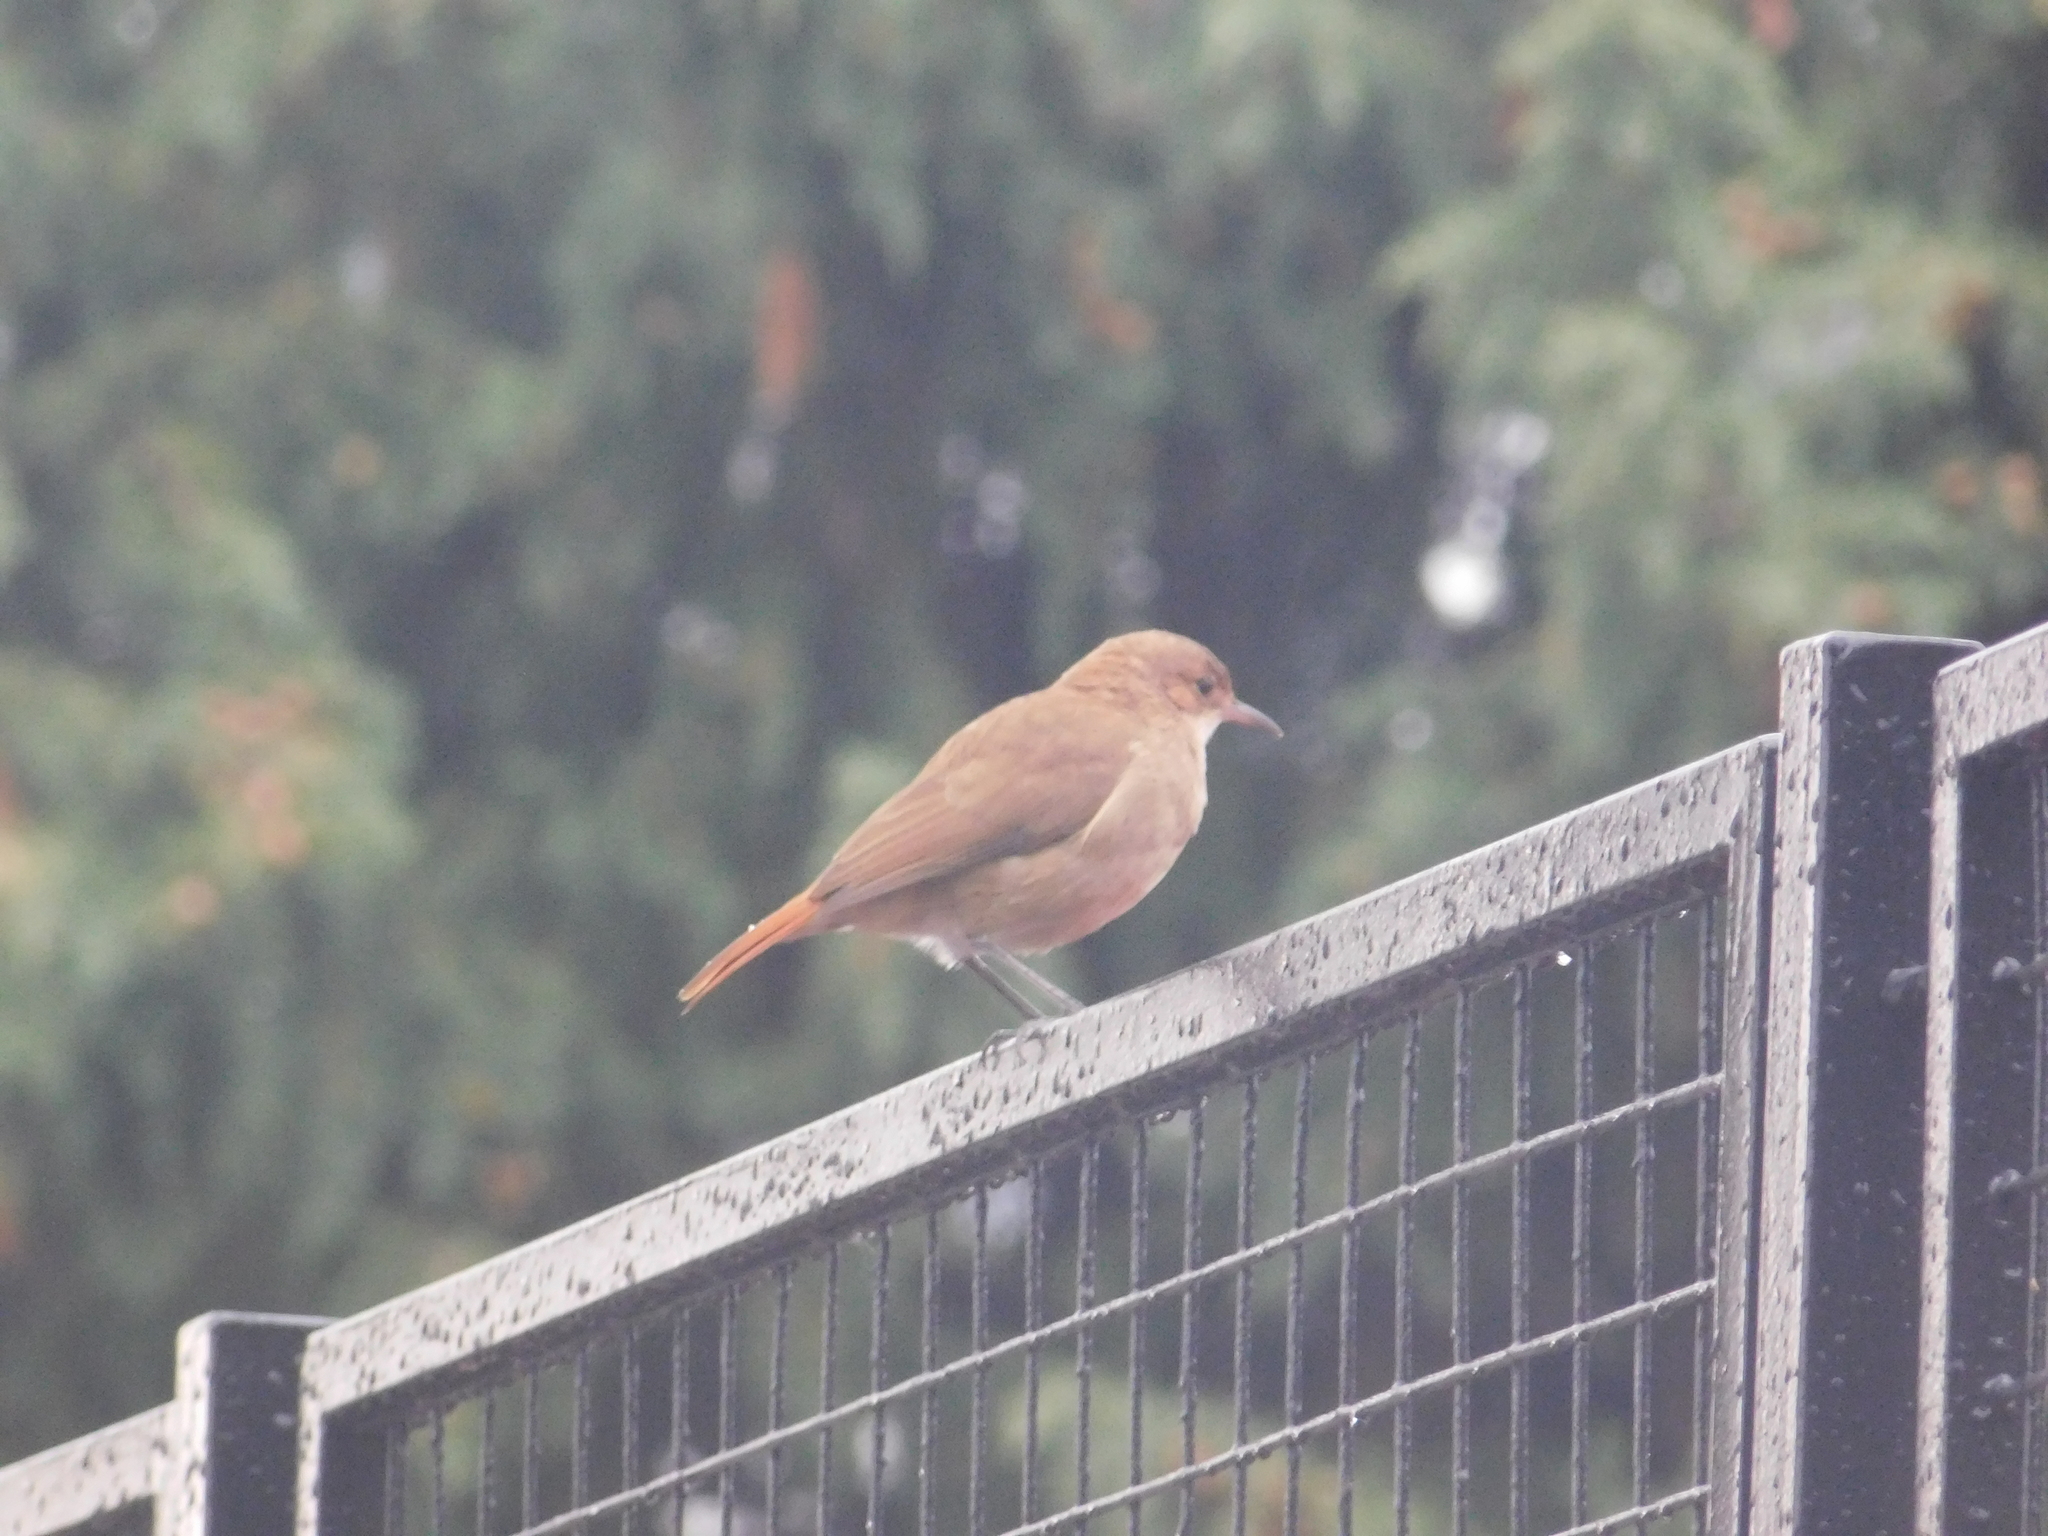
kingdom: Animalia
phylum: Chordata
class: Aves
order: Passeriformes
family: Furnariidae
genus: Furnarius
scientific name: Furnarius rufus
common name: Rufous hornero
